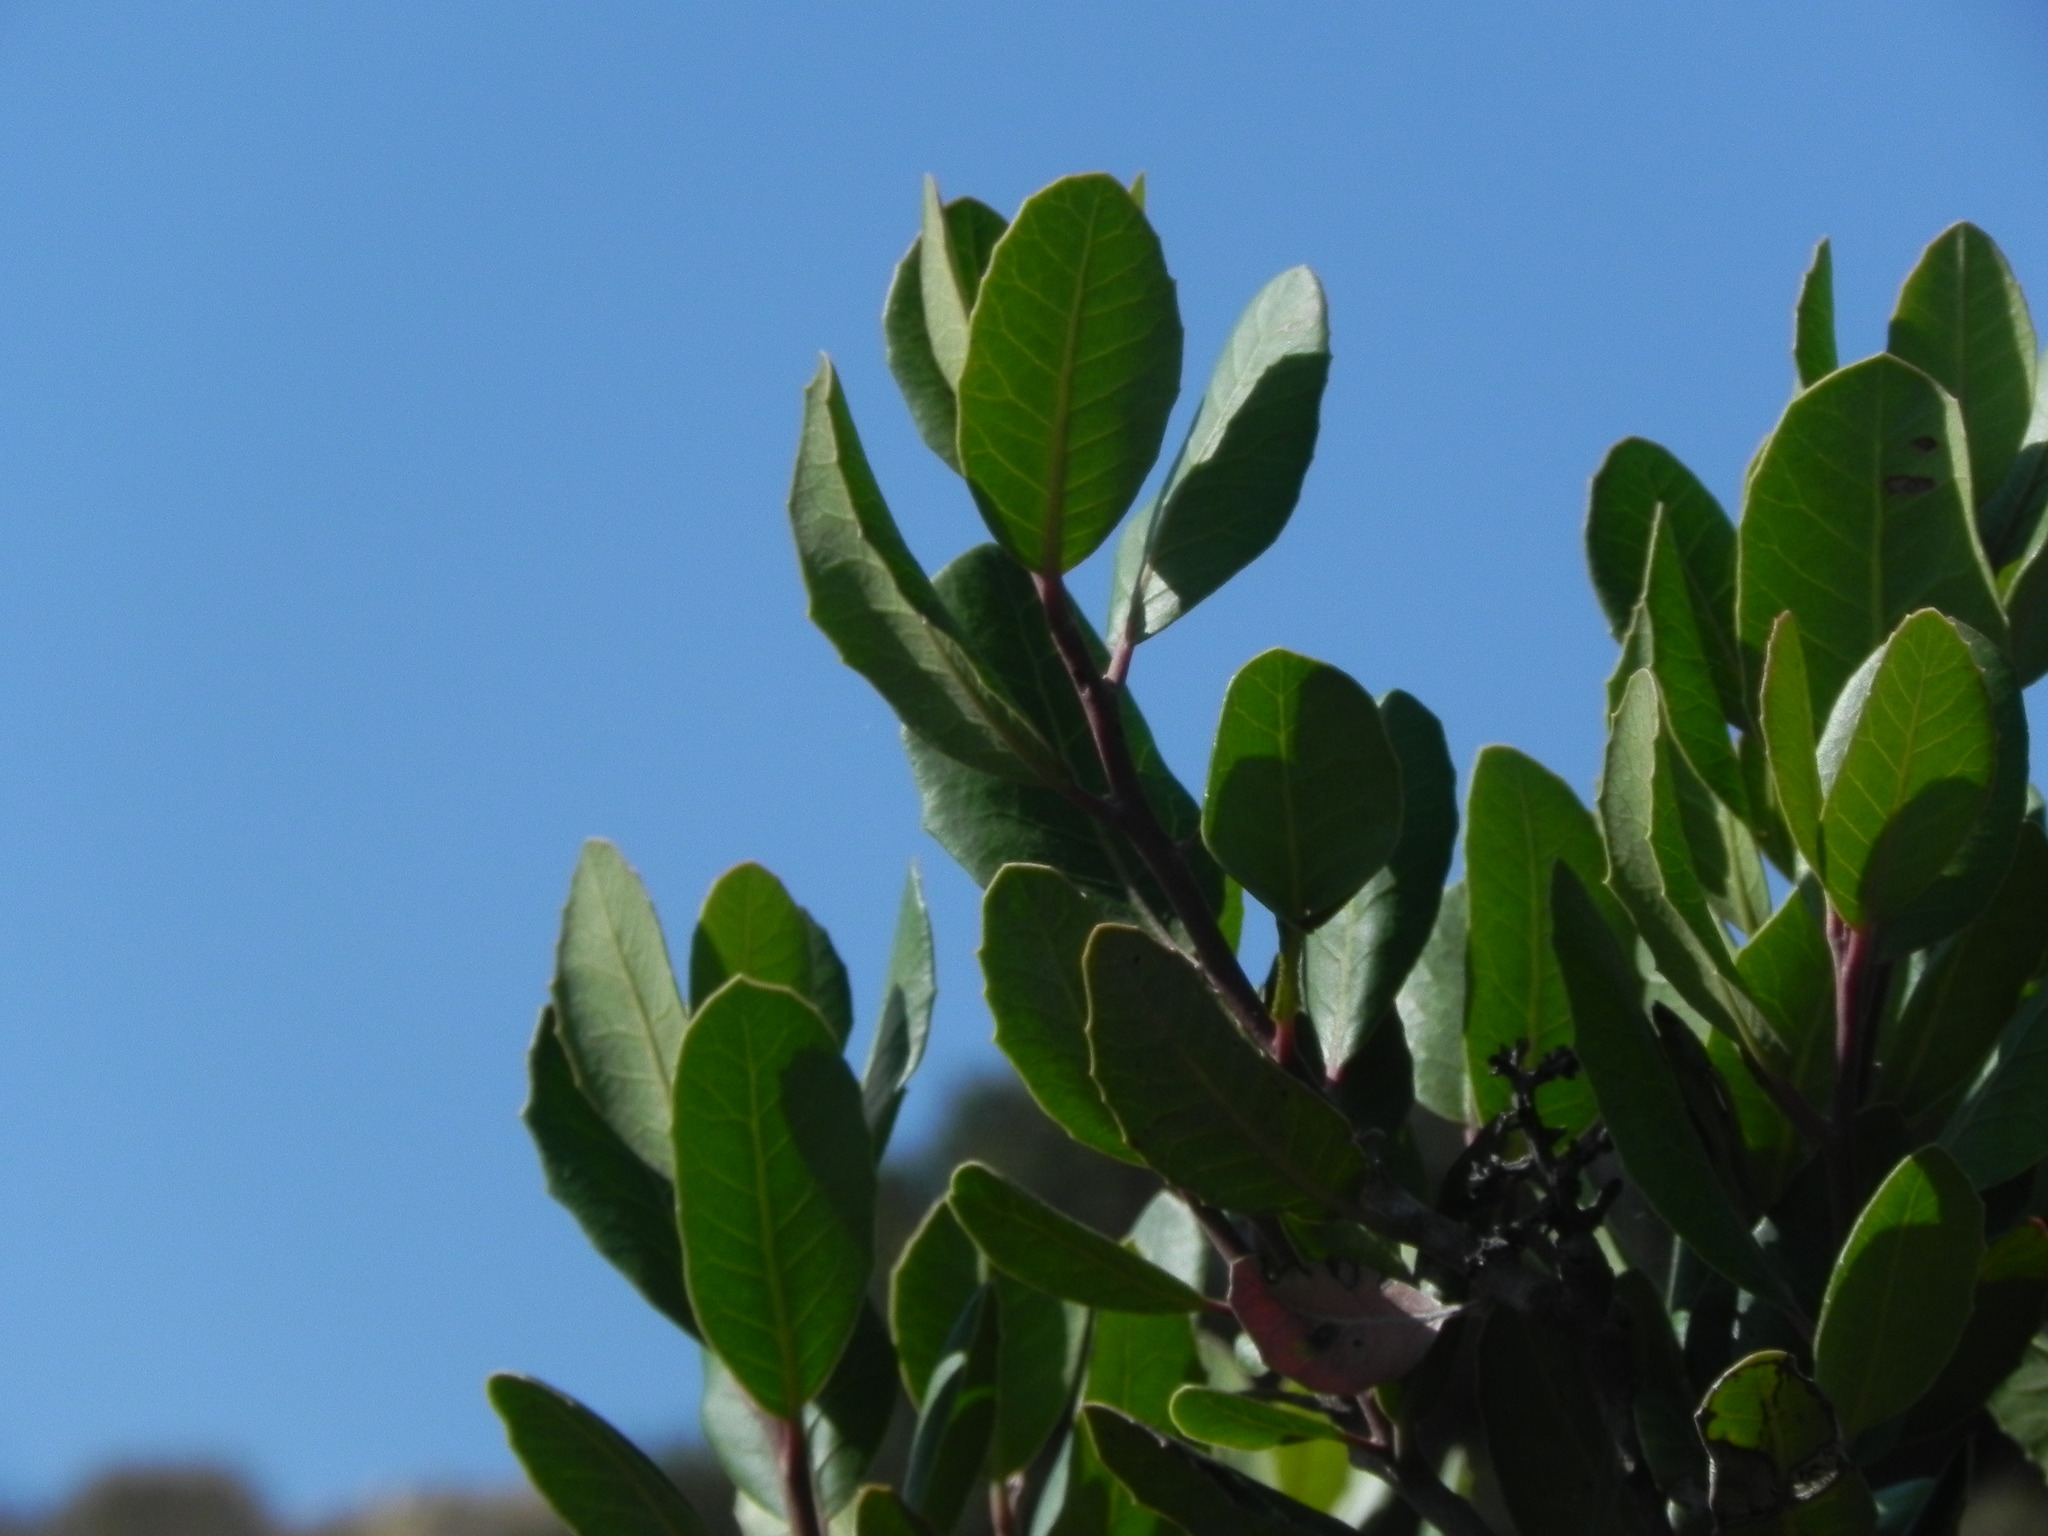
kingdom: Plantae
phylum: Tracheophyta
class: Magnoliopsida
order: Sapindales
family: Anacardiaceae
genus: Rhus
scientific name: Rhus integrifolia
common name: Lemonade sumac
